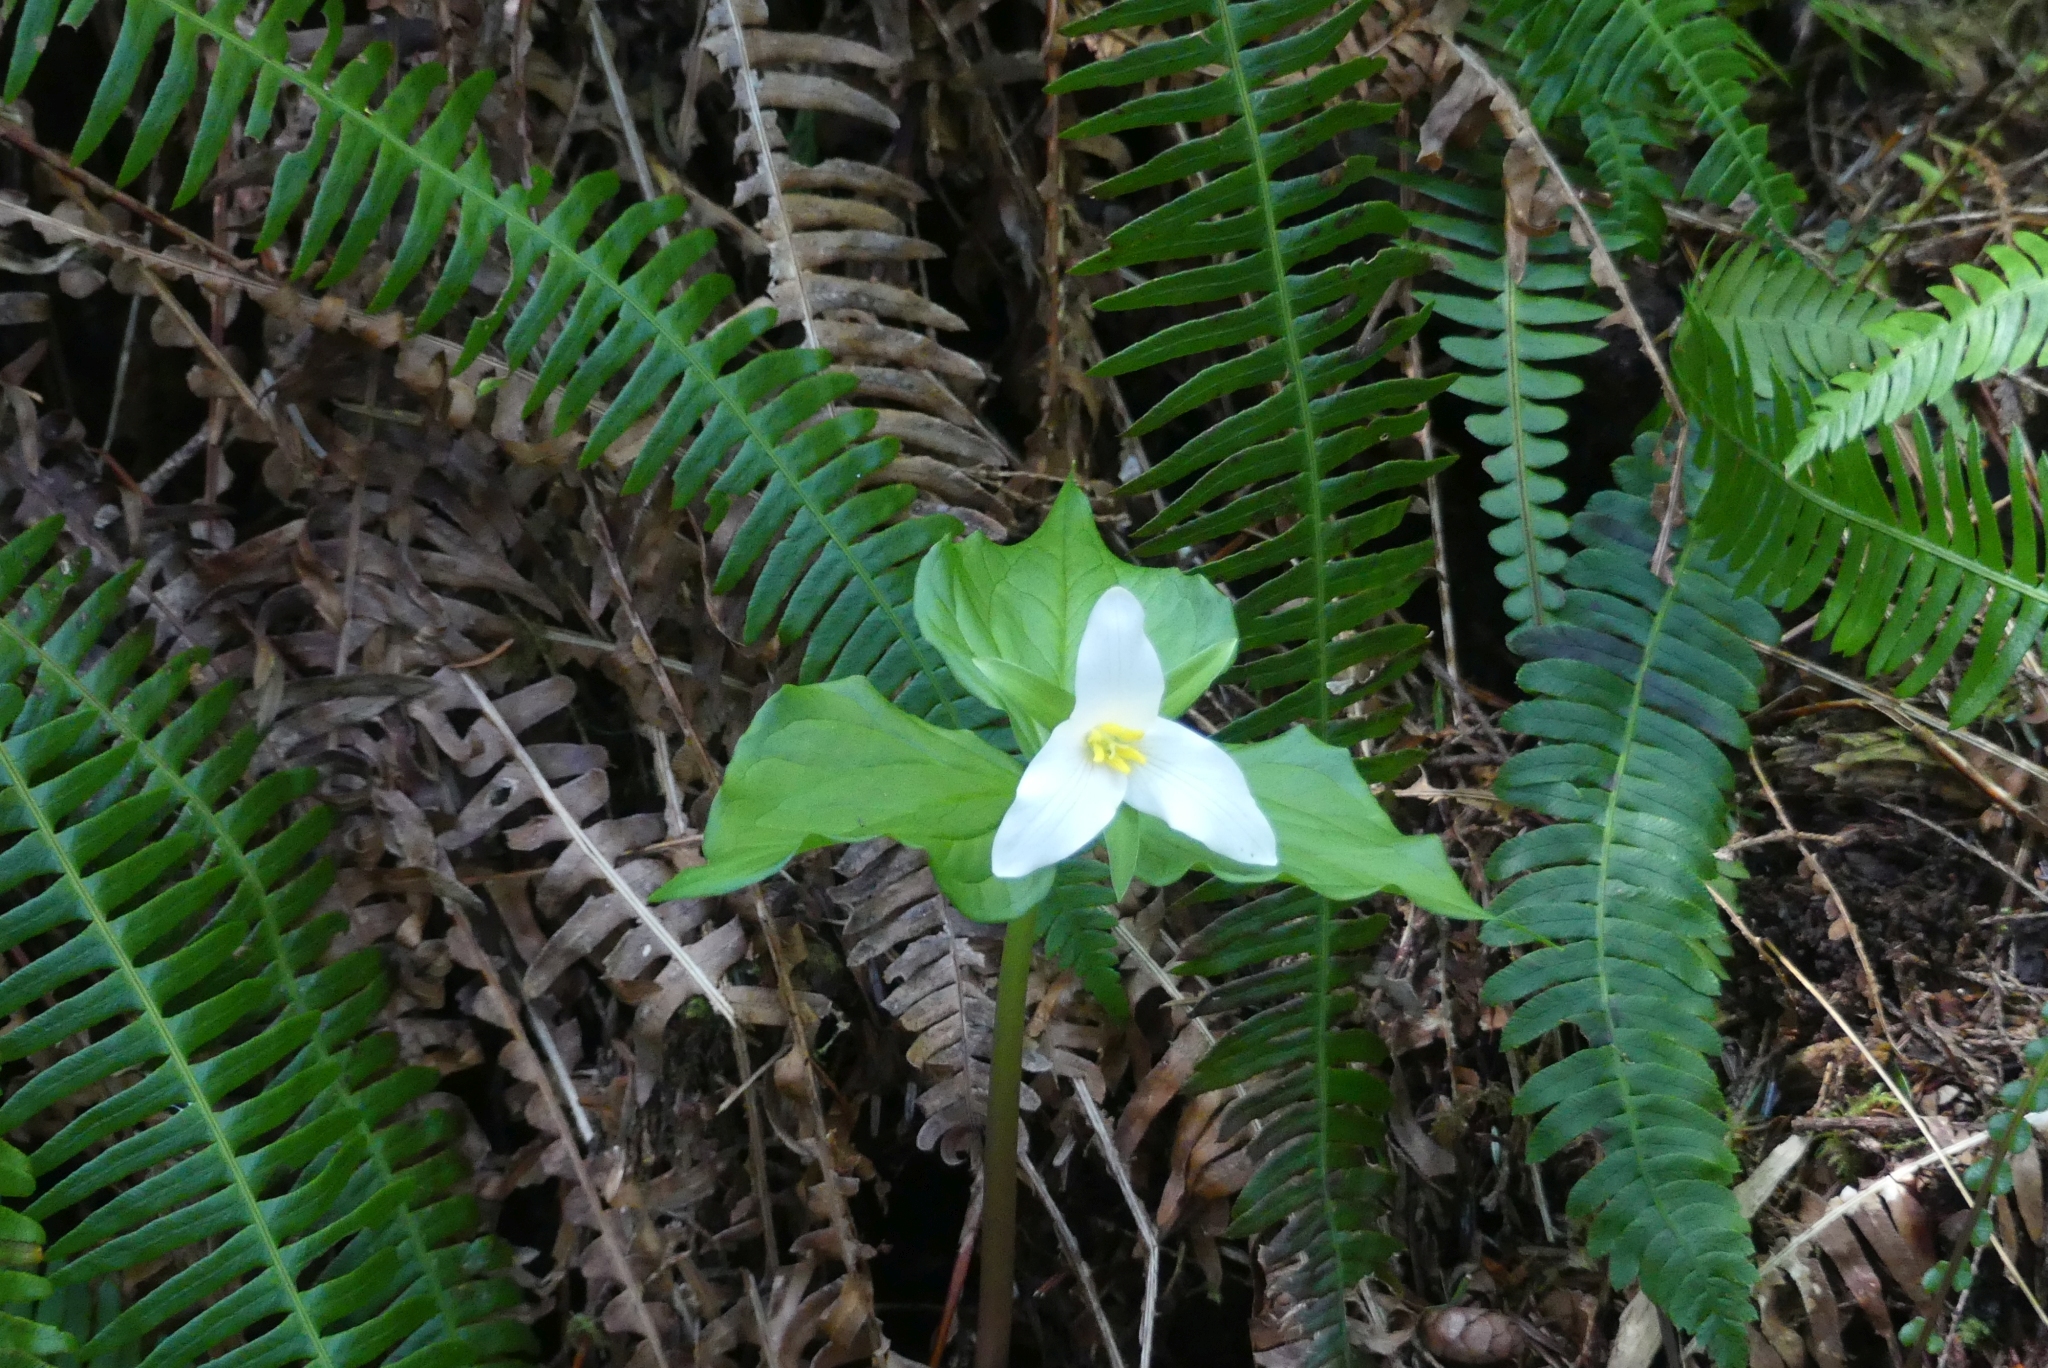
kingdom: Plantae
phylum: Tracheophyta
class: Liliopsida
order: Liliales
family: Melanthiaceae
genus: Trillium
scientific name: Trillium ovatum
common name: Pacific trillium
